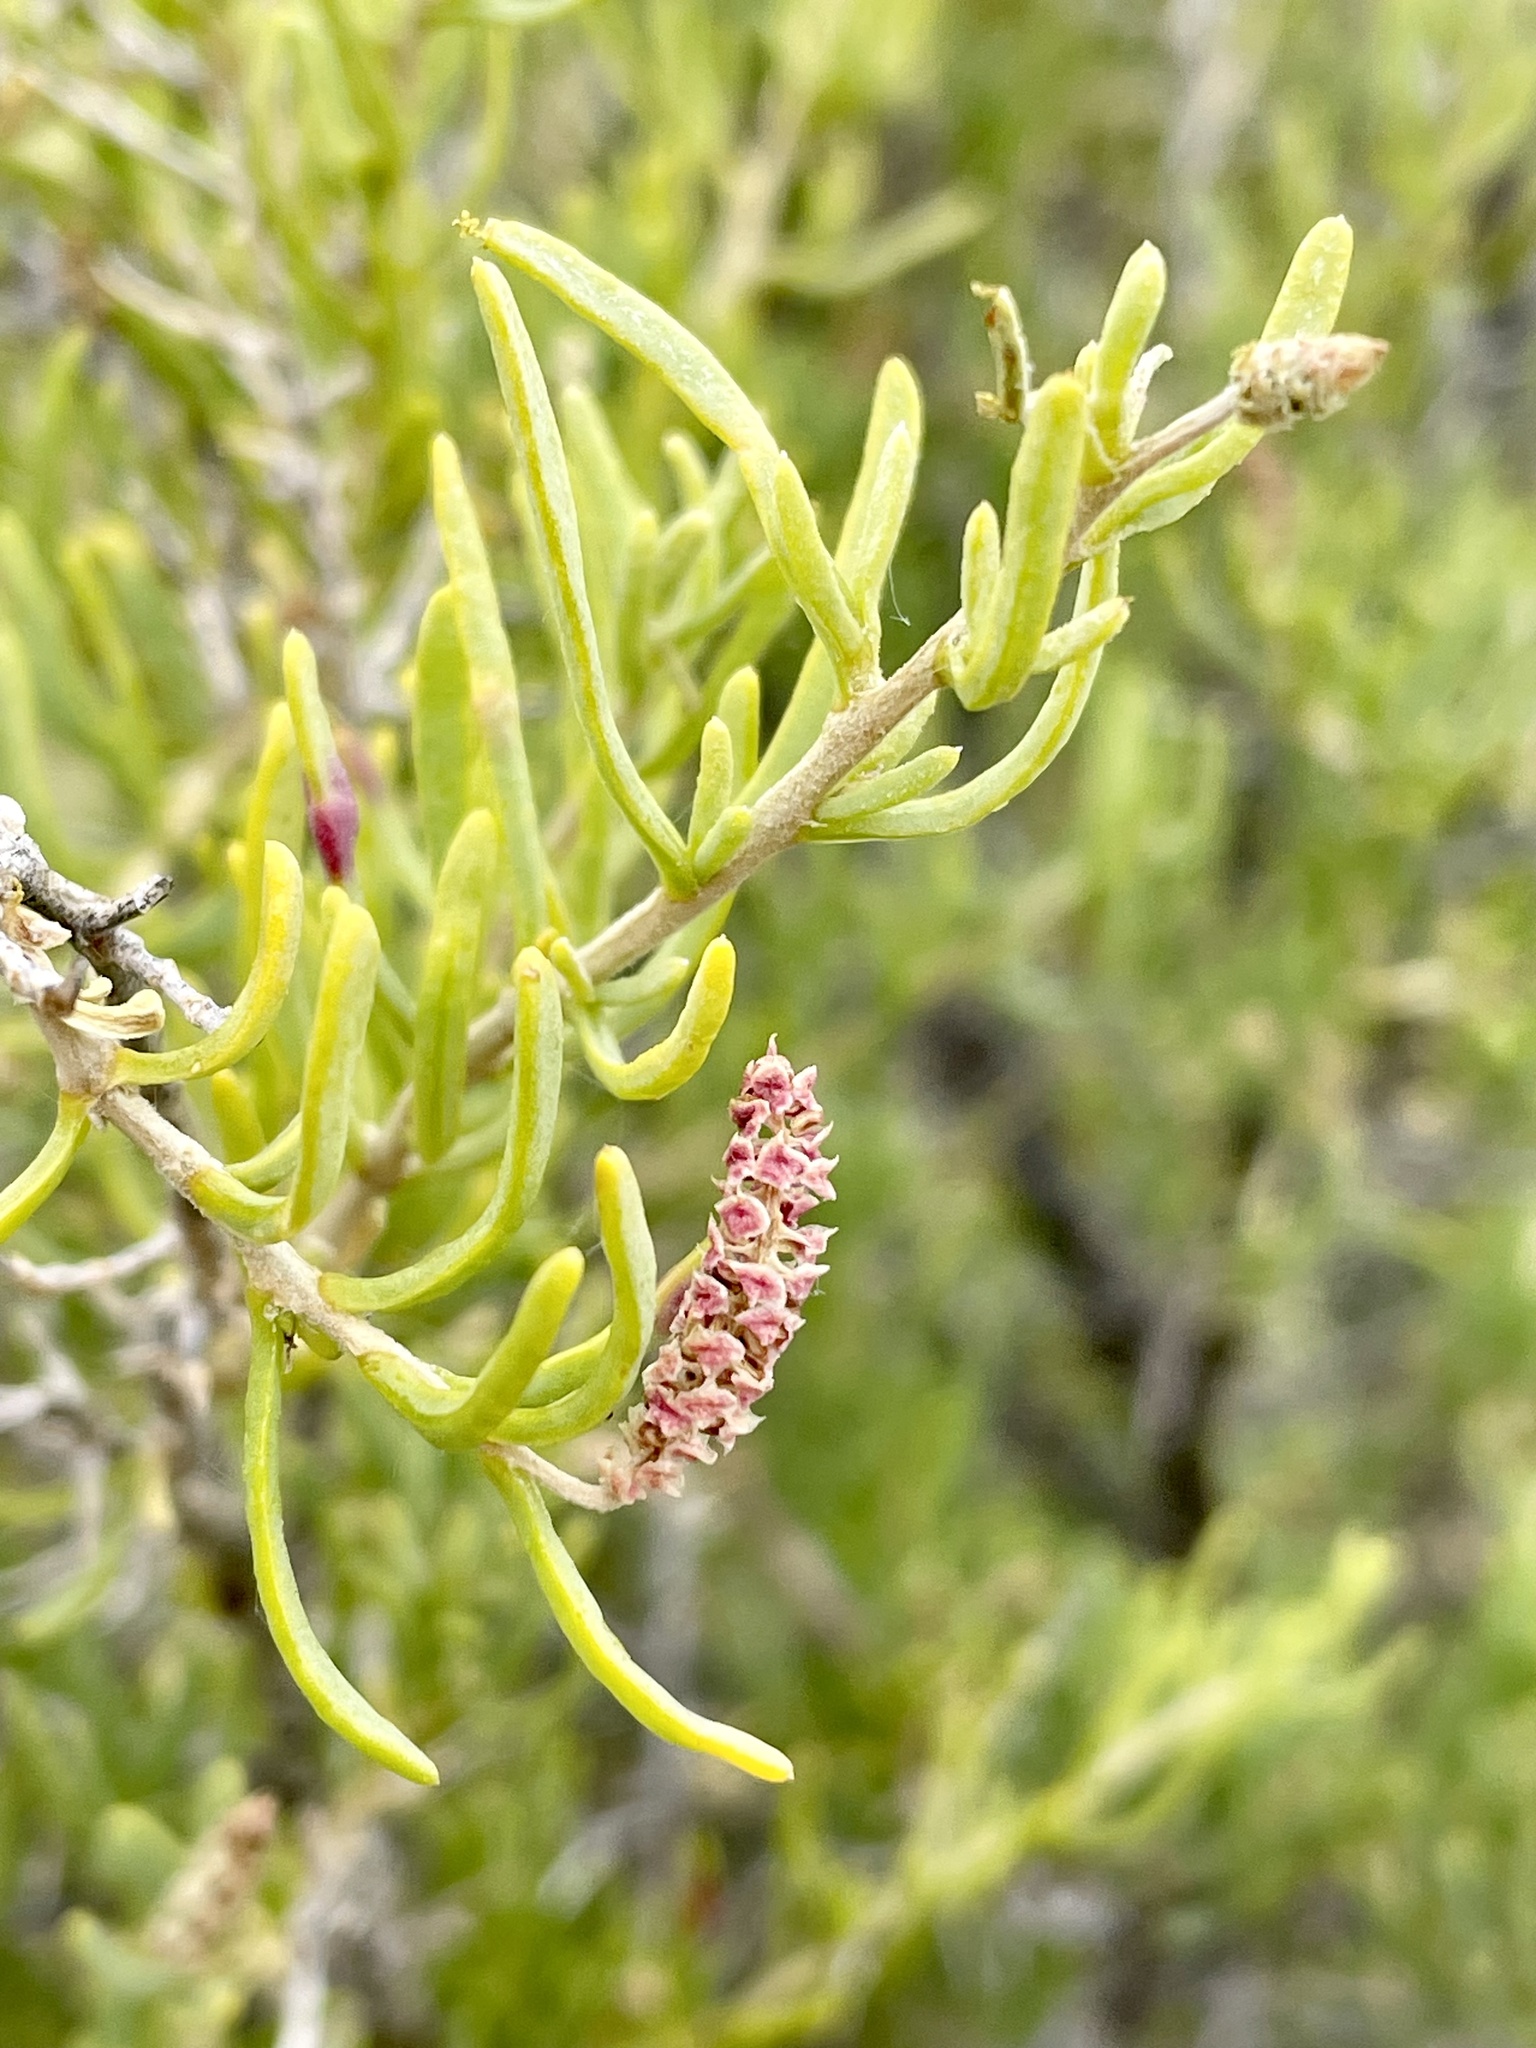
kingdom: Plantae
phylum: Tracheophyta
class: Magnoliopsida
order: Caryophyllales
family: Sarcobataceae
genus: Sarcobatus
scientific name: Sarcobatus vermiculatus
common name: Greasewood
